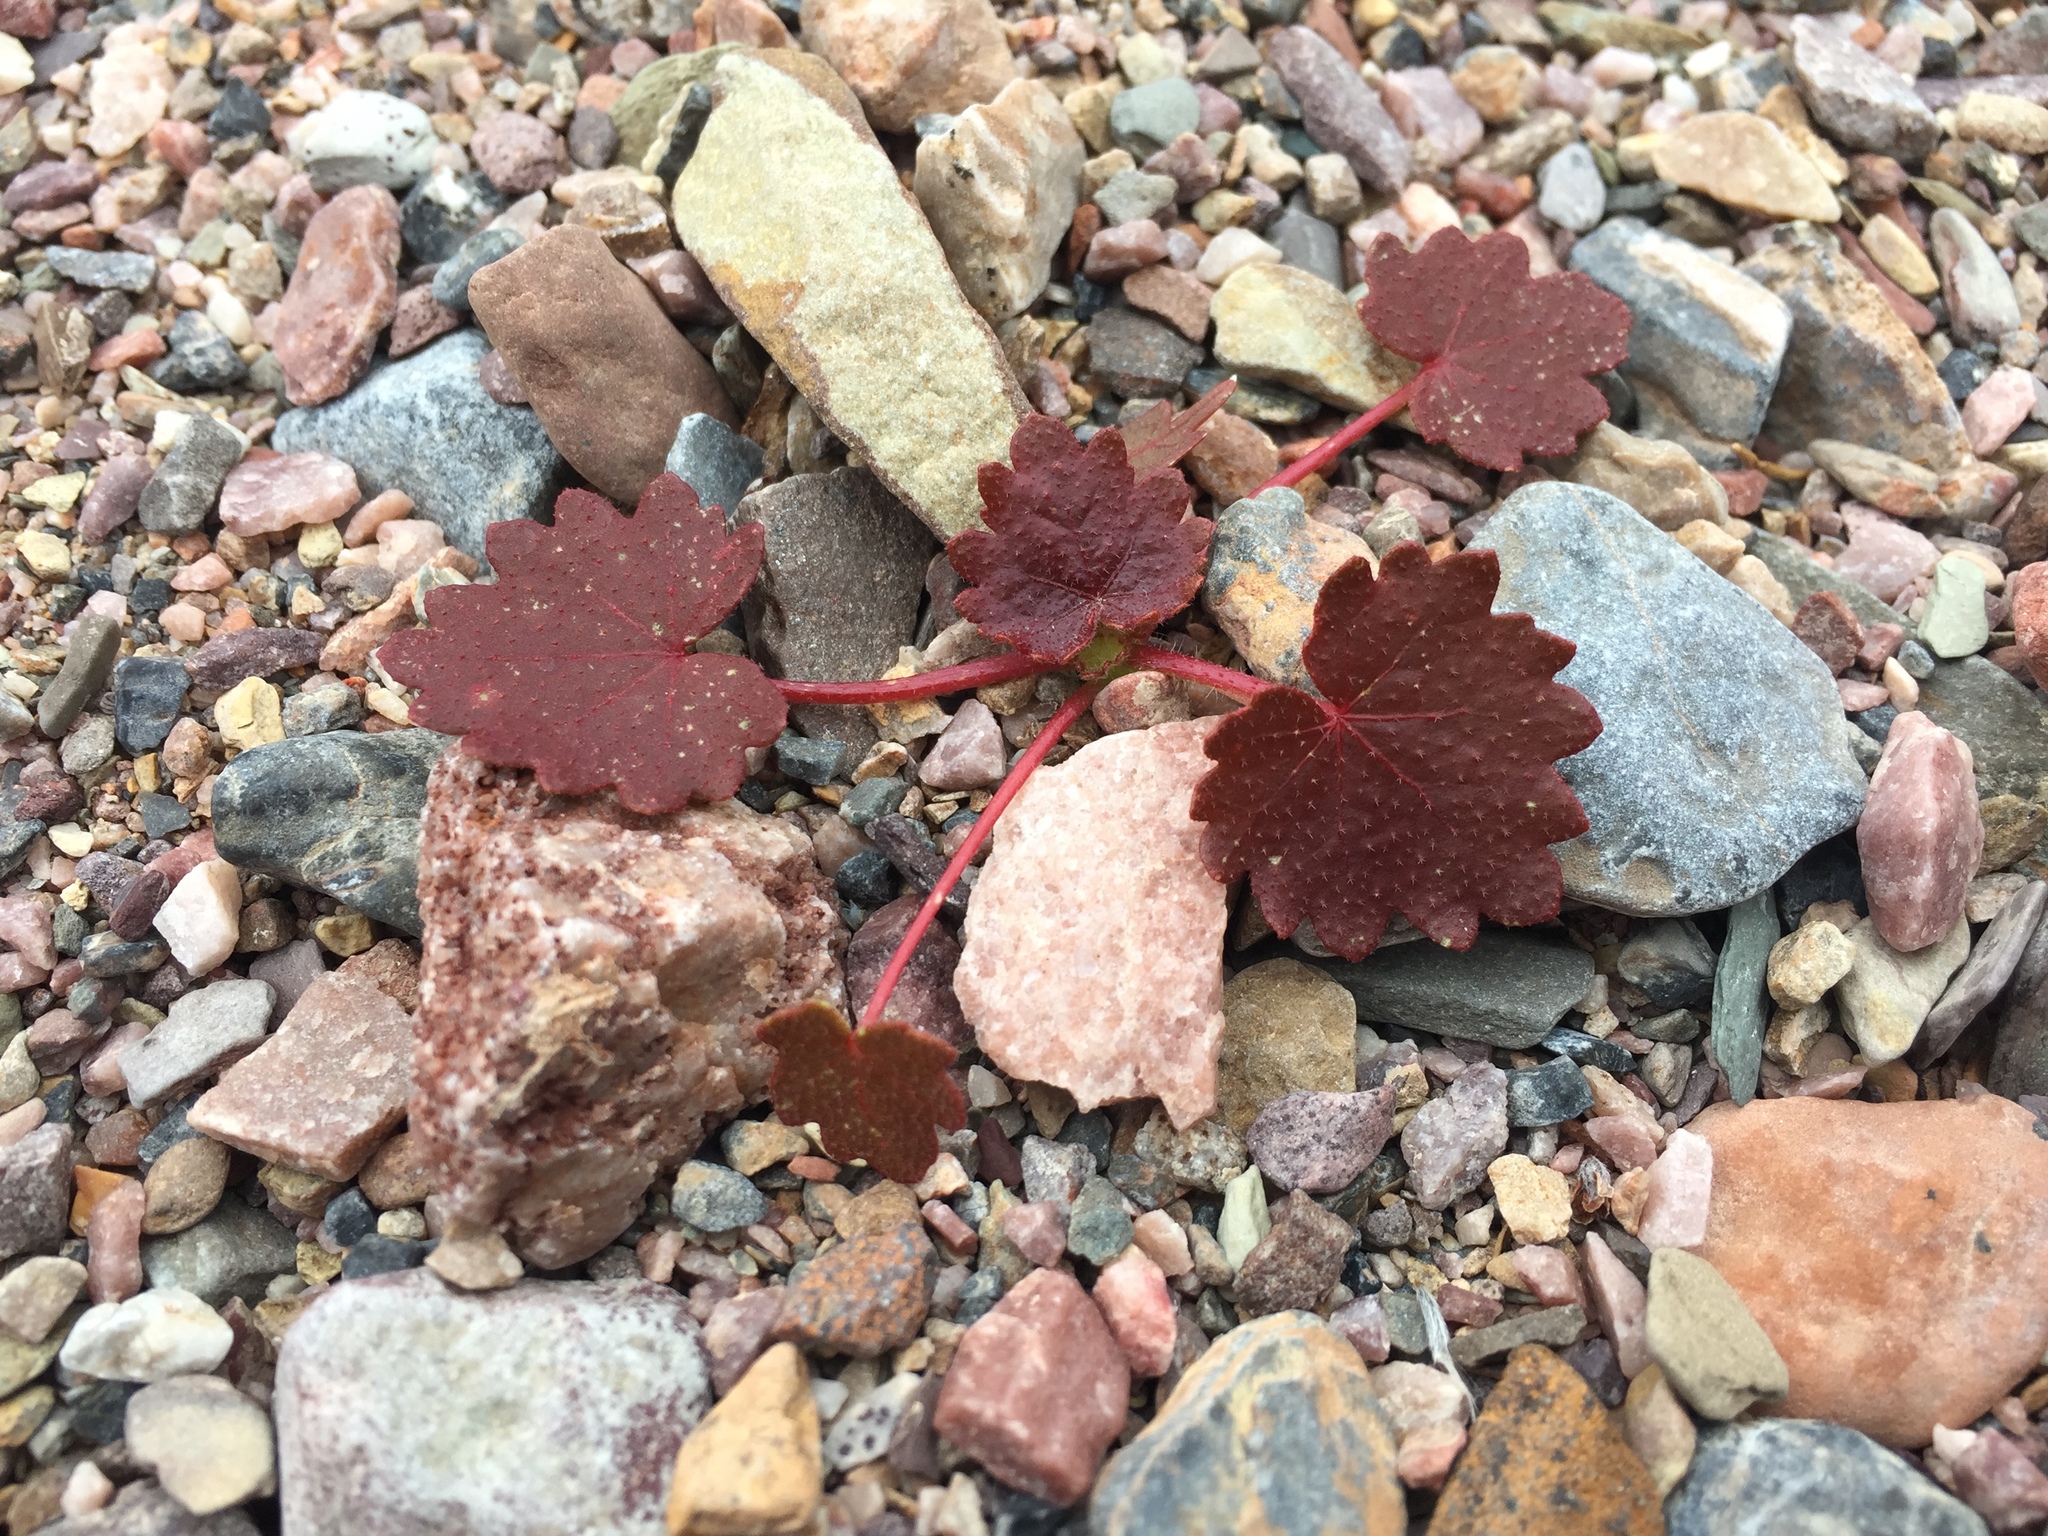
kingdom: Plantae
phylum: Tracheophyta
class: Magnoliopsida
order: Malvales
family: Malvaceae
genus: Eremalche
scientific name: Eremalche rotundifolia
